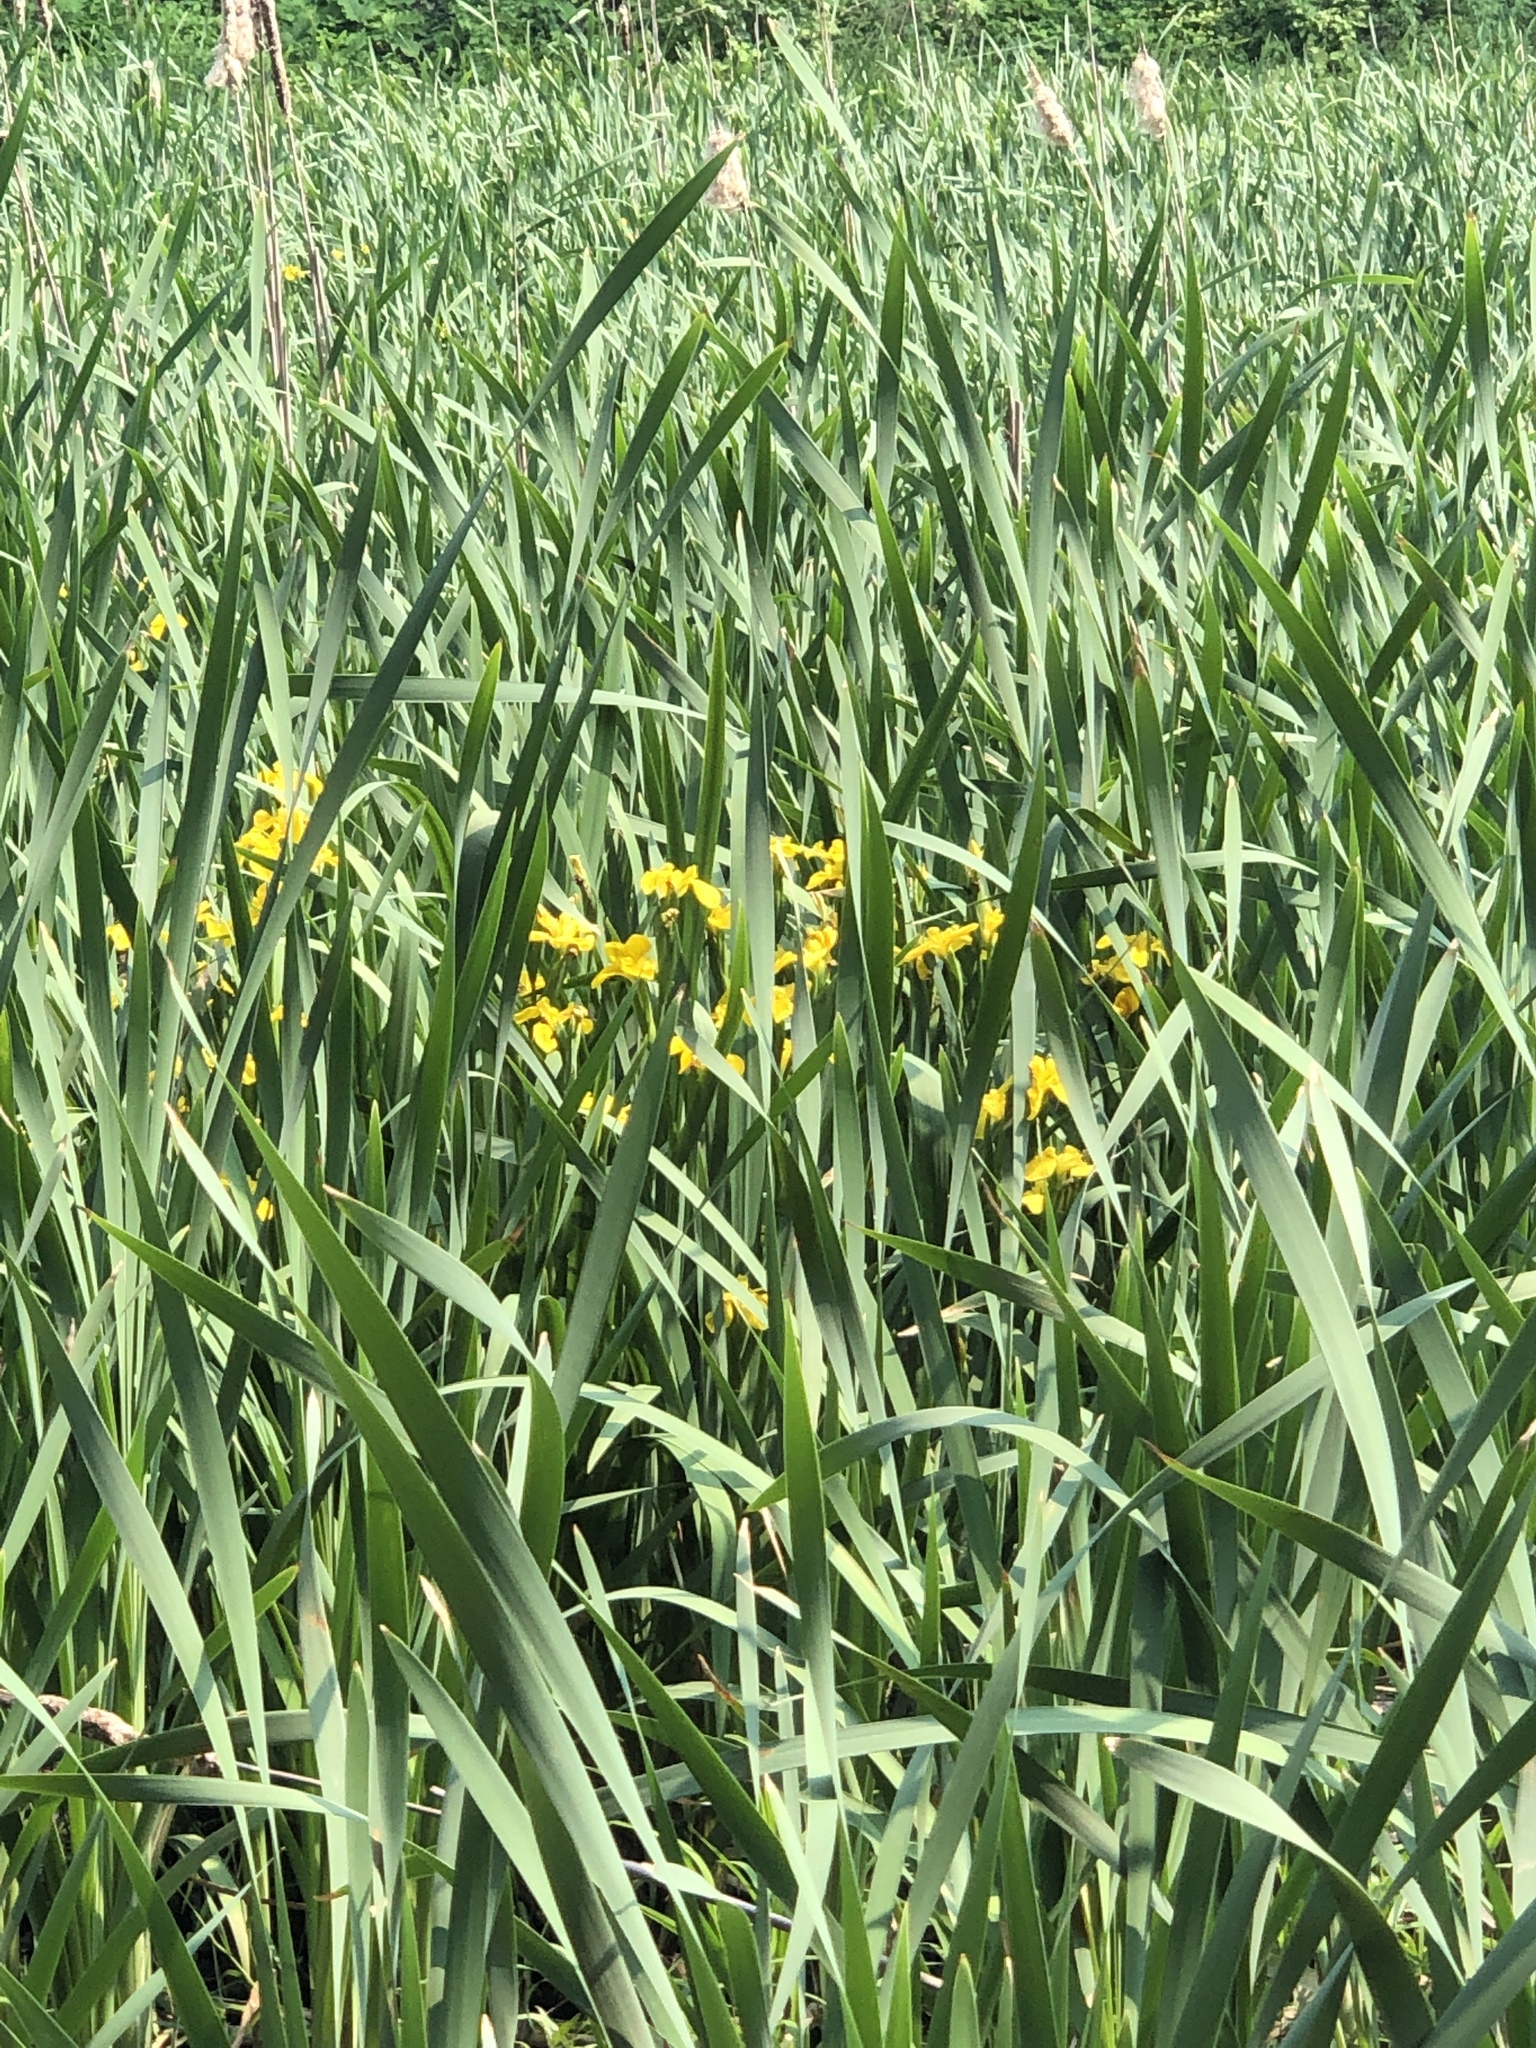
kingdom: Plantae
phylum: Tracheophyta
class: Liliopsida
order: Asparagales
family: Iridaceae
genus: Iris
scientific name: Iris pseudacorus
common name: Yellow flag
